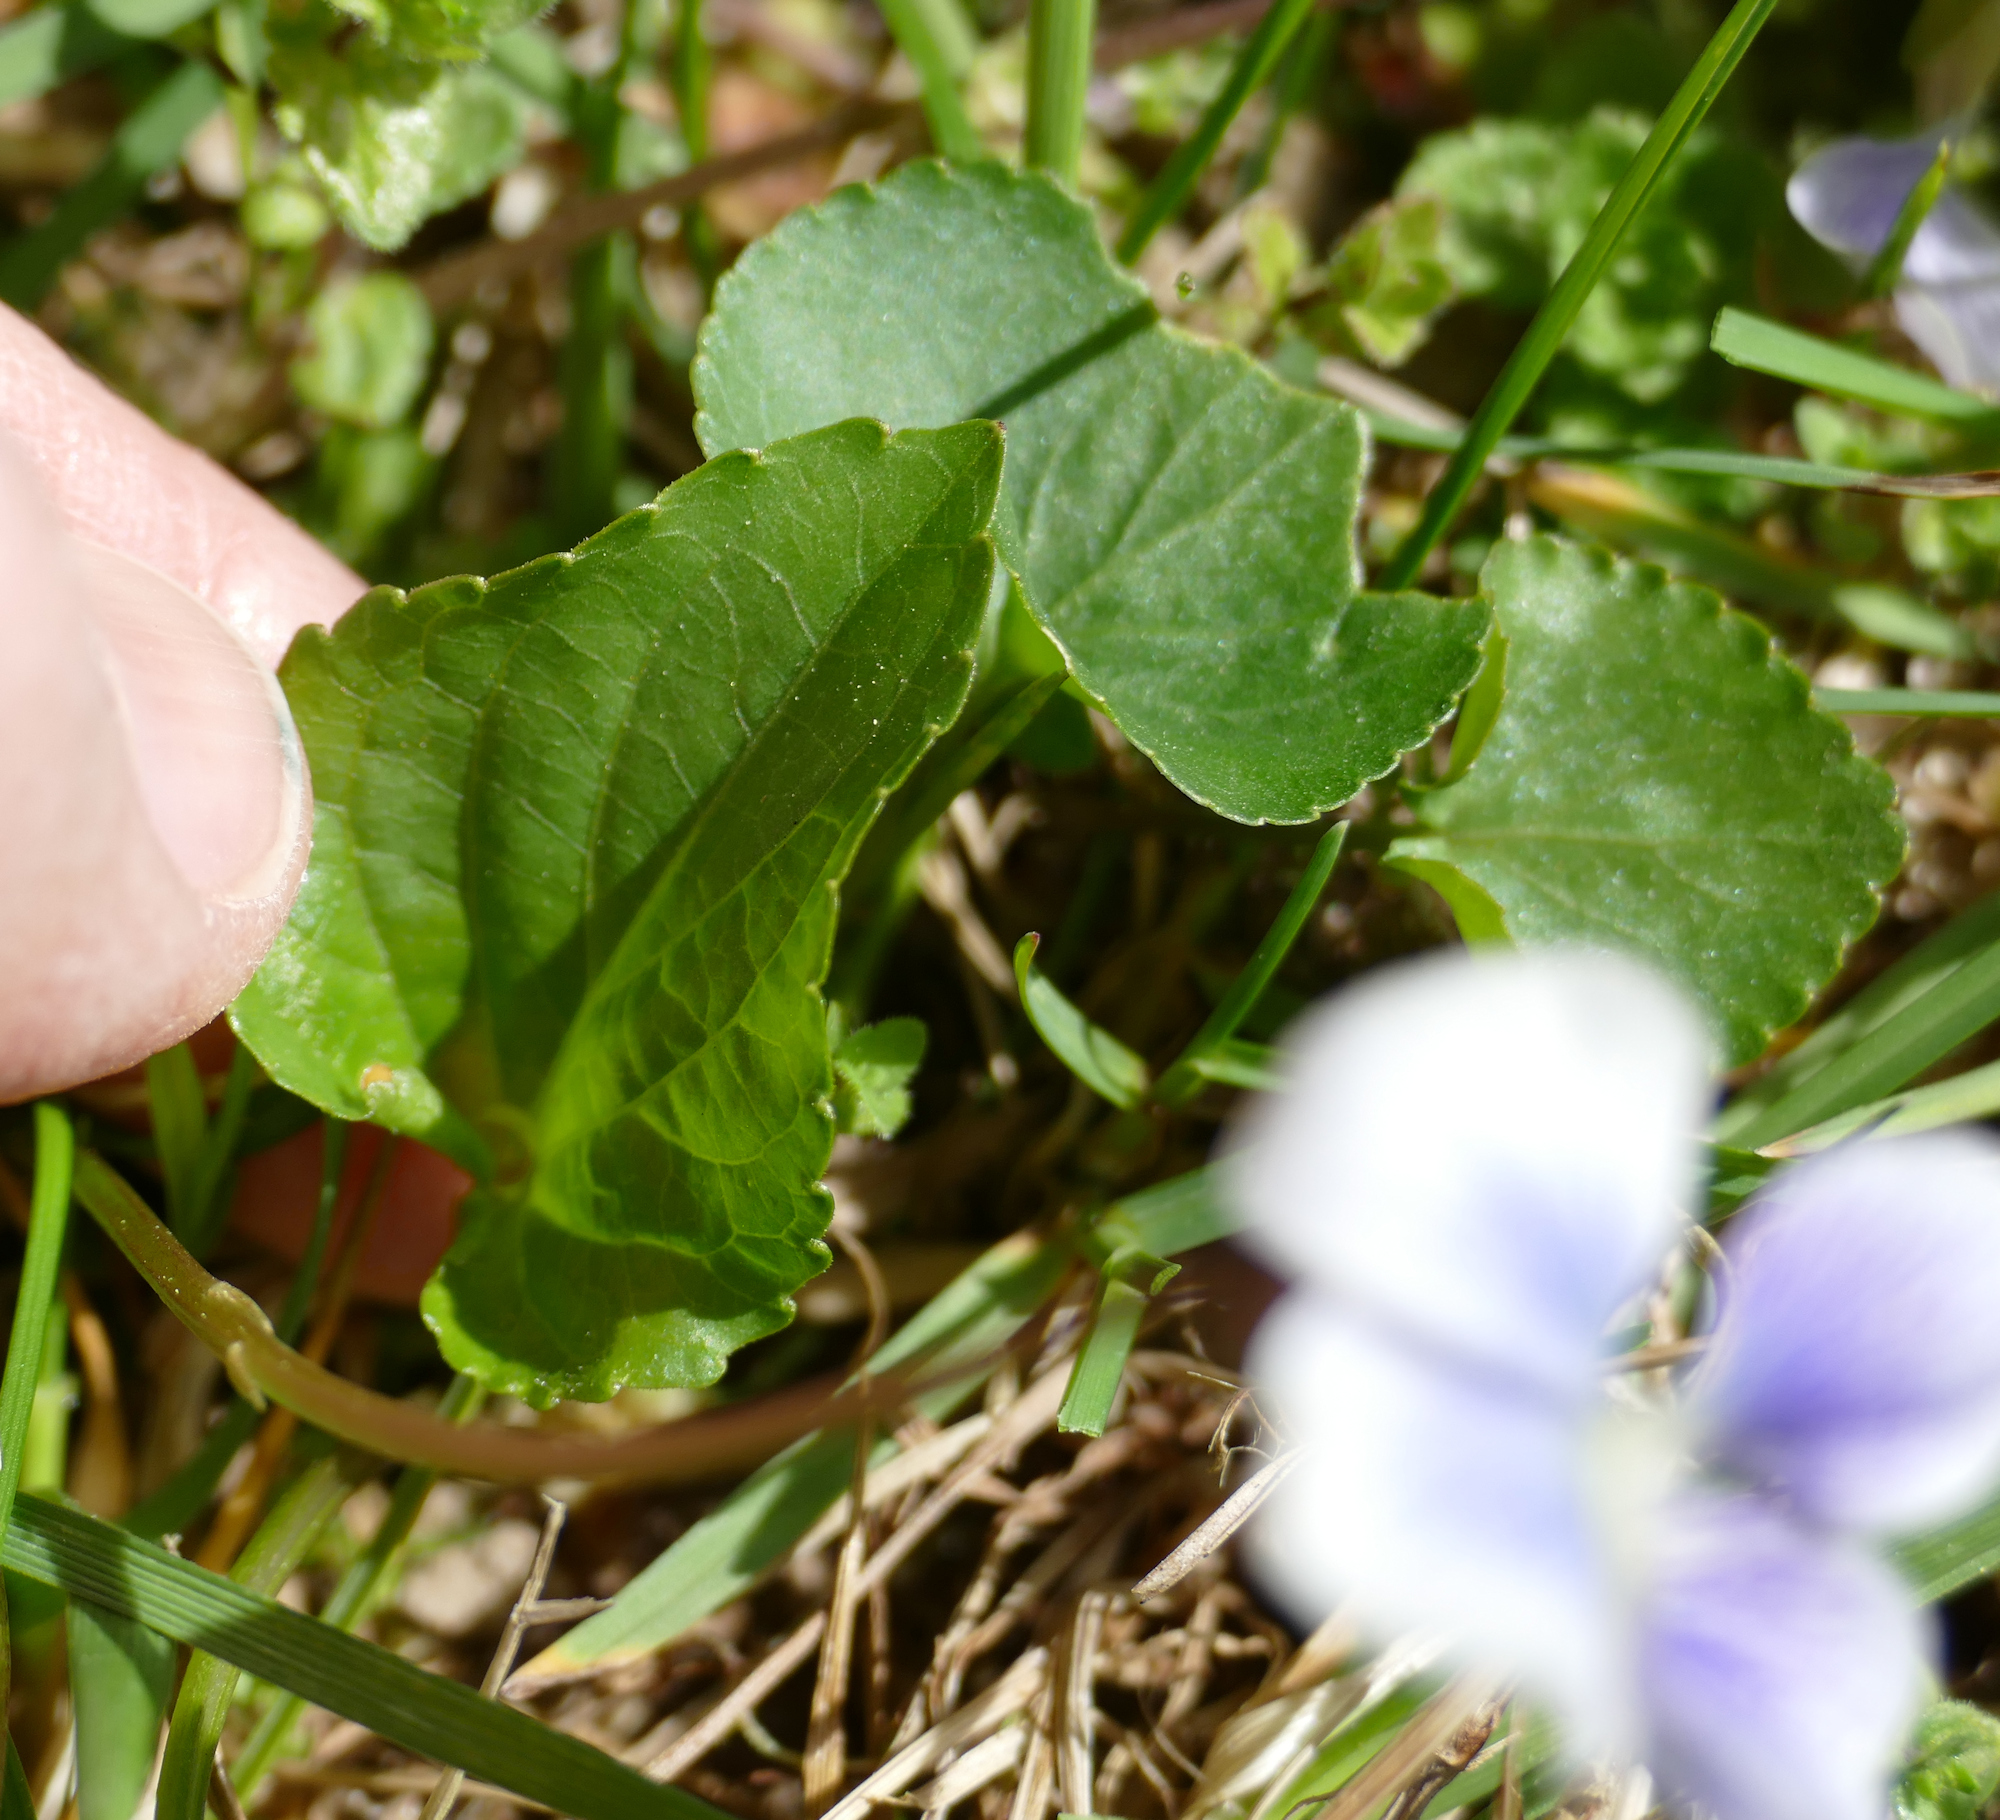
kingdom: Plantae
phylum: Tracheophyta
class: Magnoliopsida
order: Malpighiales
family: Violaceae
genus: Viola
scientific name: Viola sororia
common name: Dooryard violet
